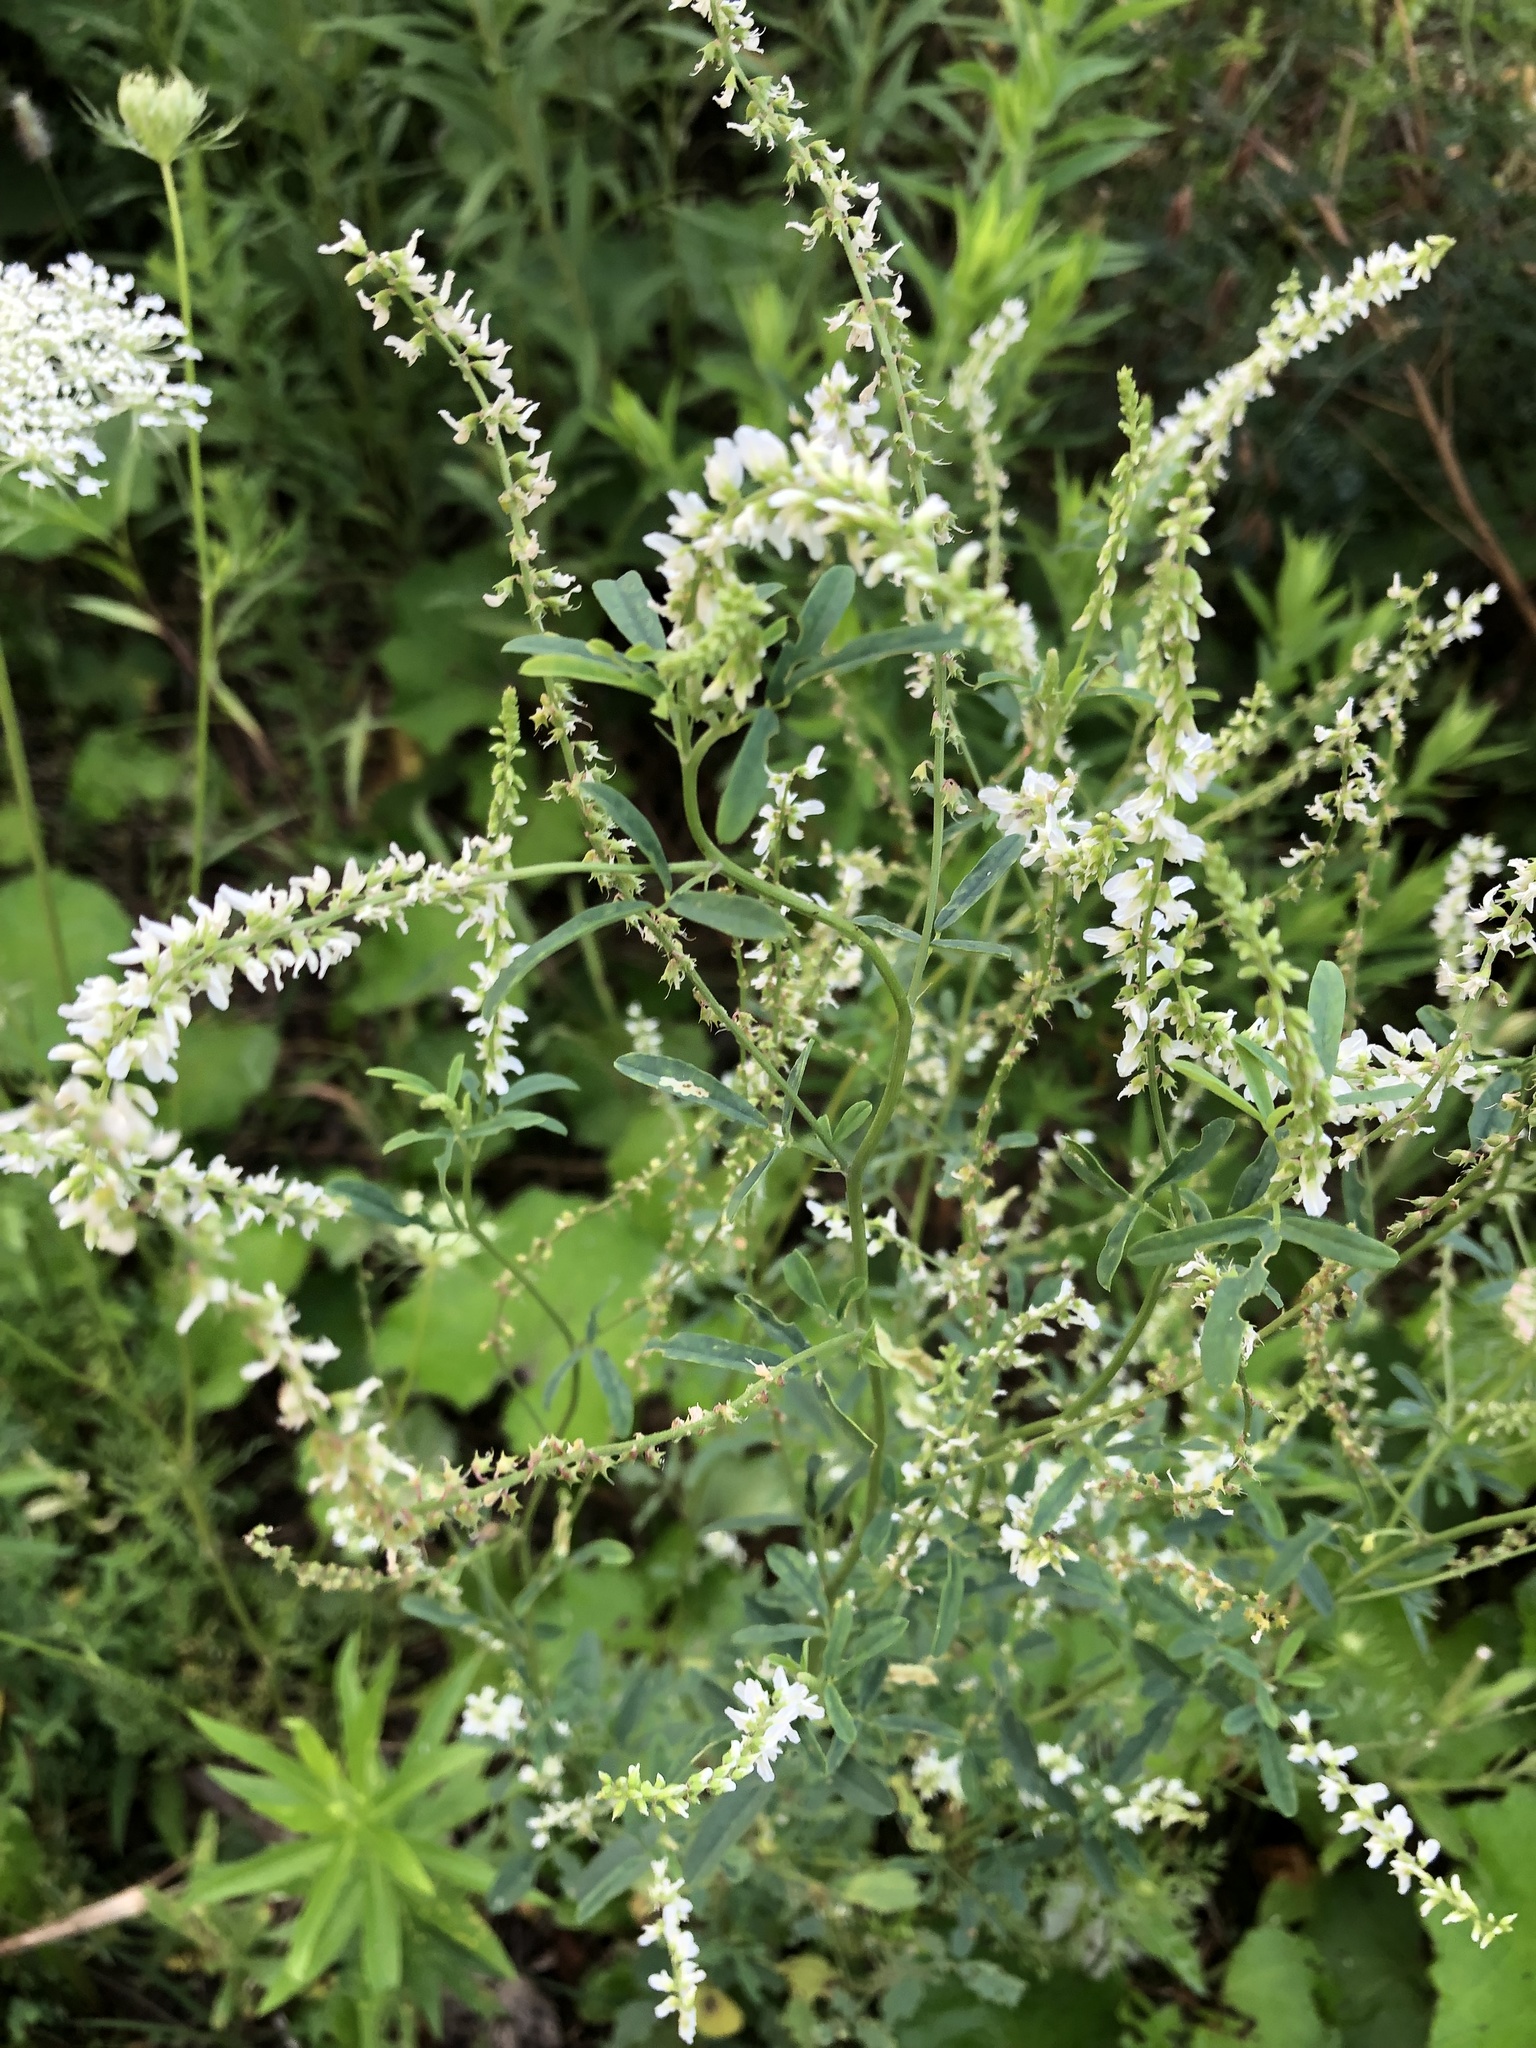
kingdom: Plantae
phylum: Tracheophyta
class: Magnoliopsida
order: Fabales
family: Fabaceae
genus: Melilotus
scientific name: Melilotus albus
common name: White melilot
